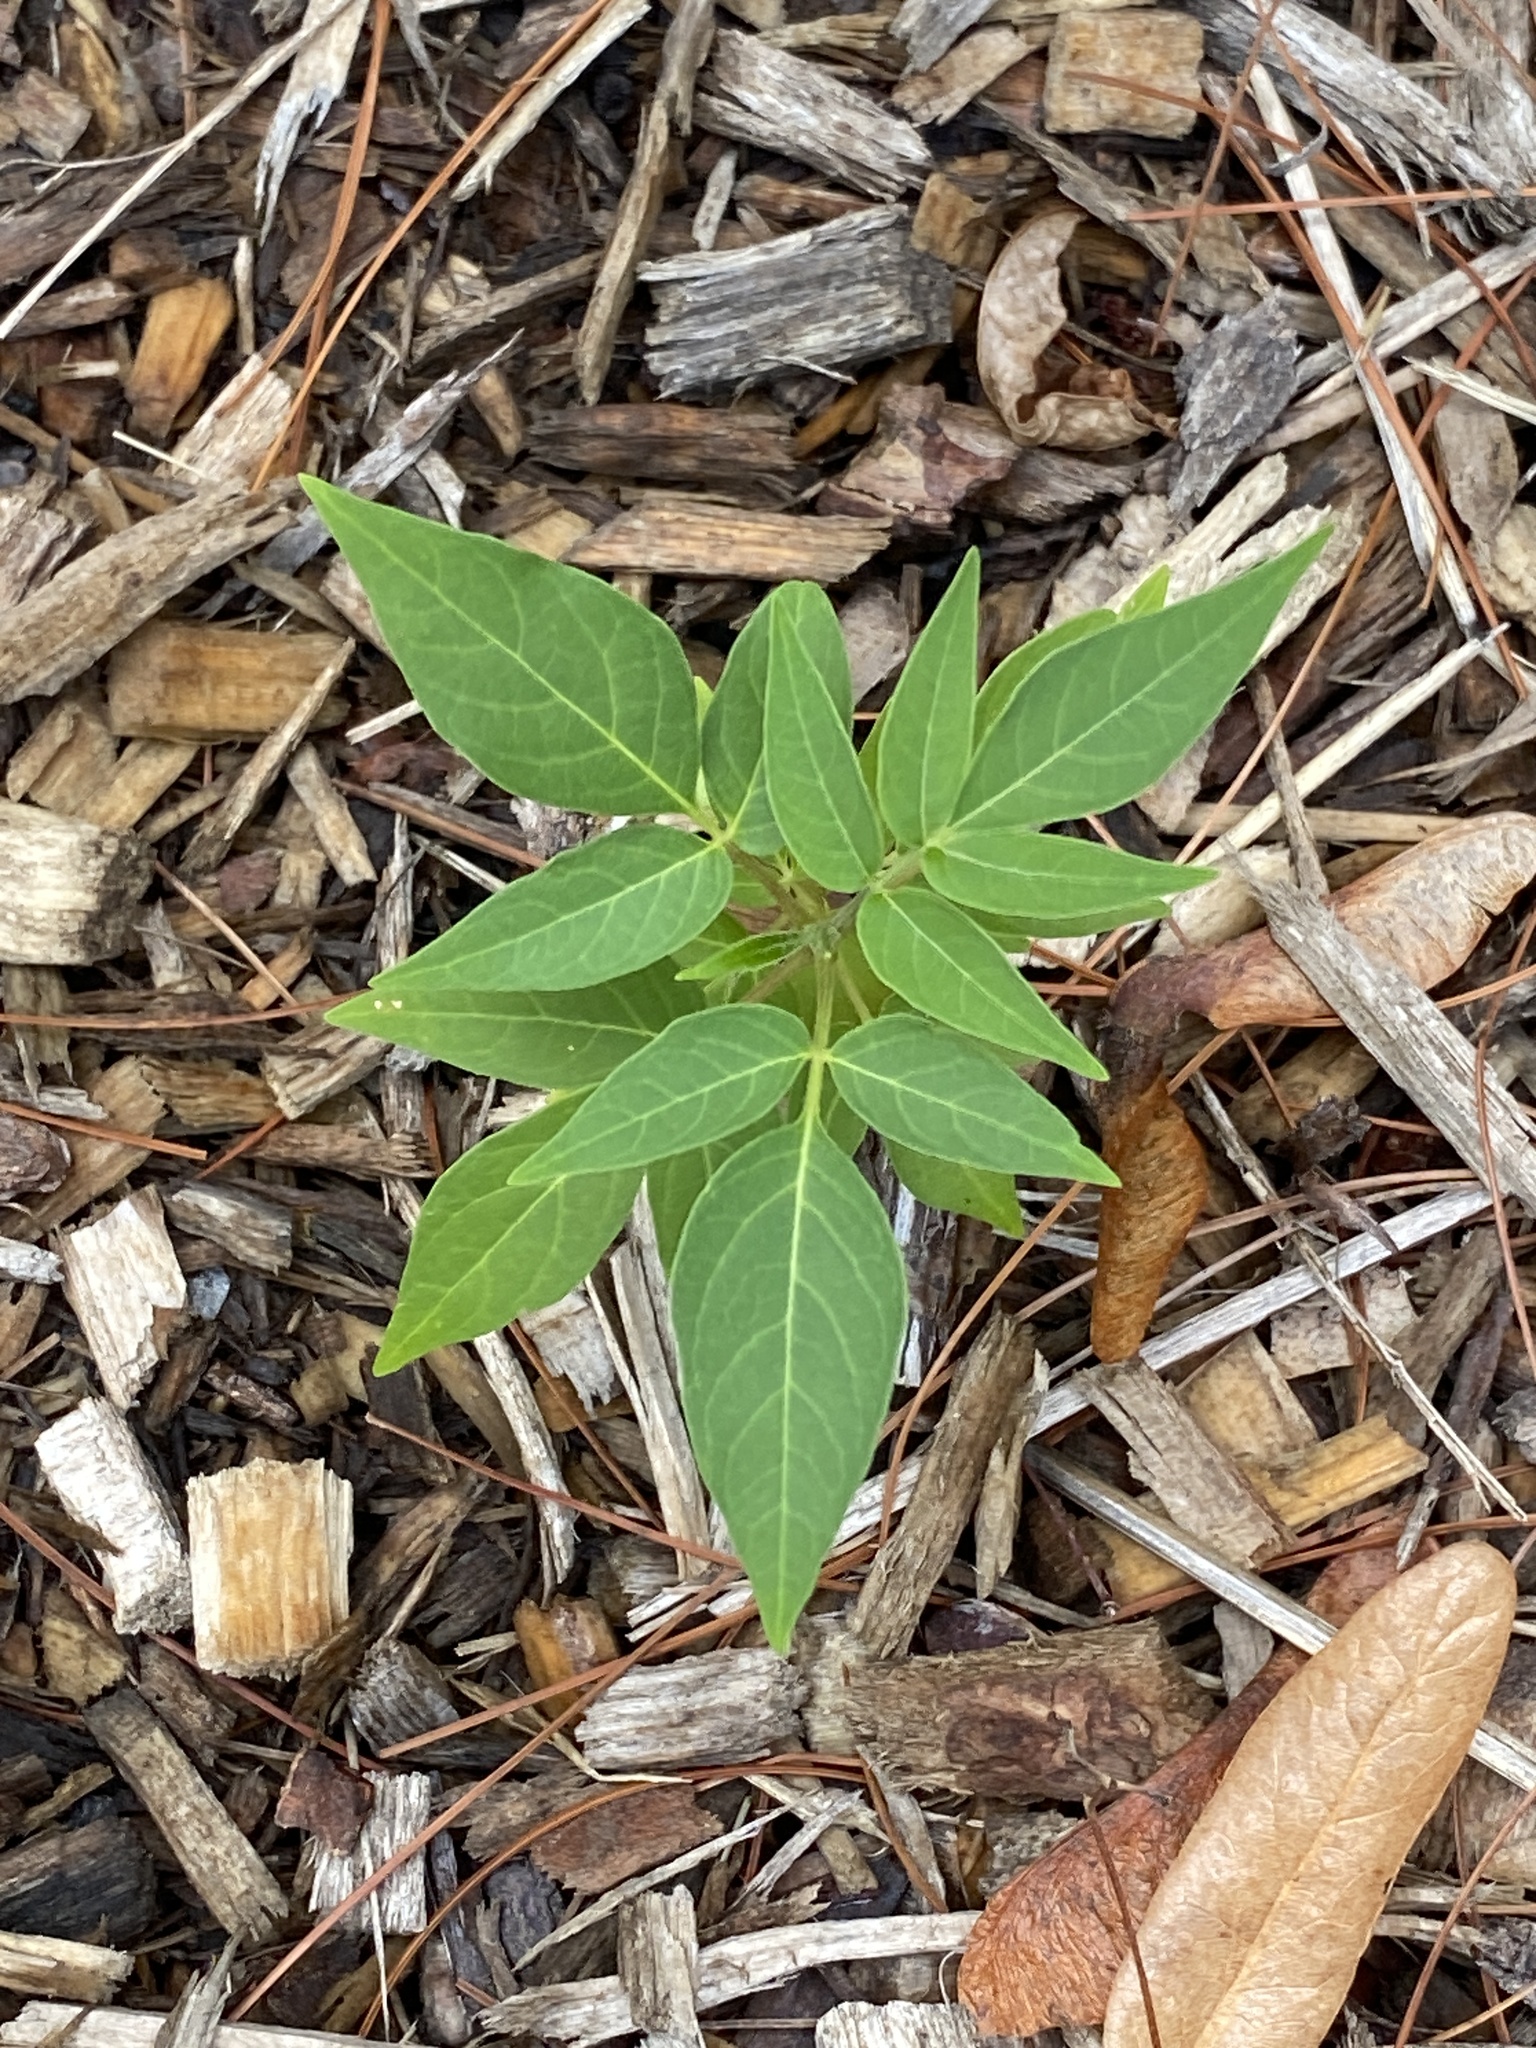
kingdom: Plantae
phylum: Tracheophyta
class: Magnoliopsida
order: Sapindales
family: Simaroubaceae
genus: Ailanthus
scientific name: Ailanthus altissima
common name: Tree-of-heaven
